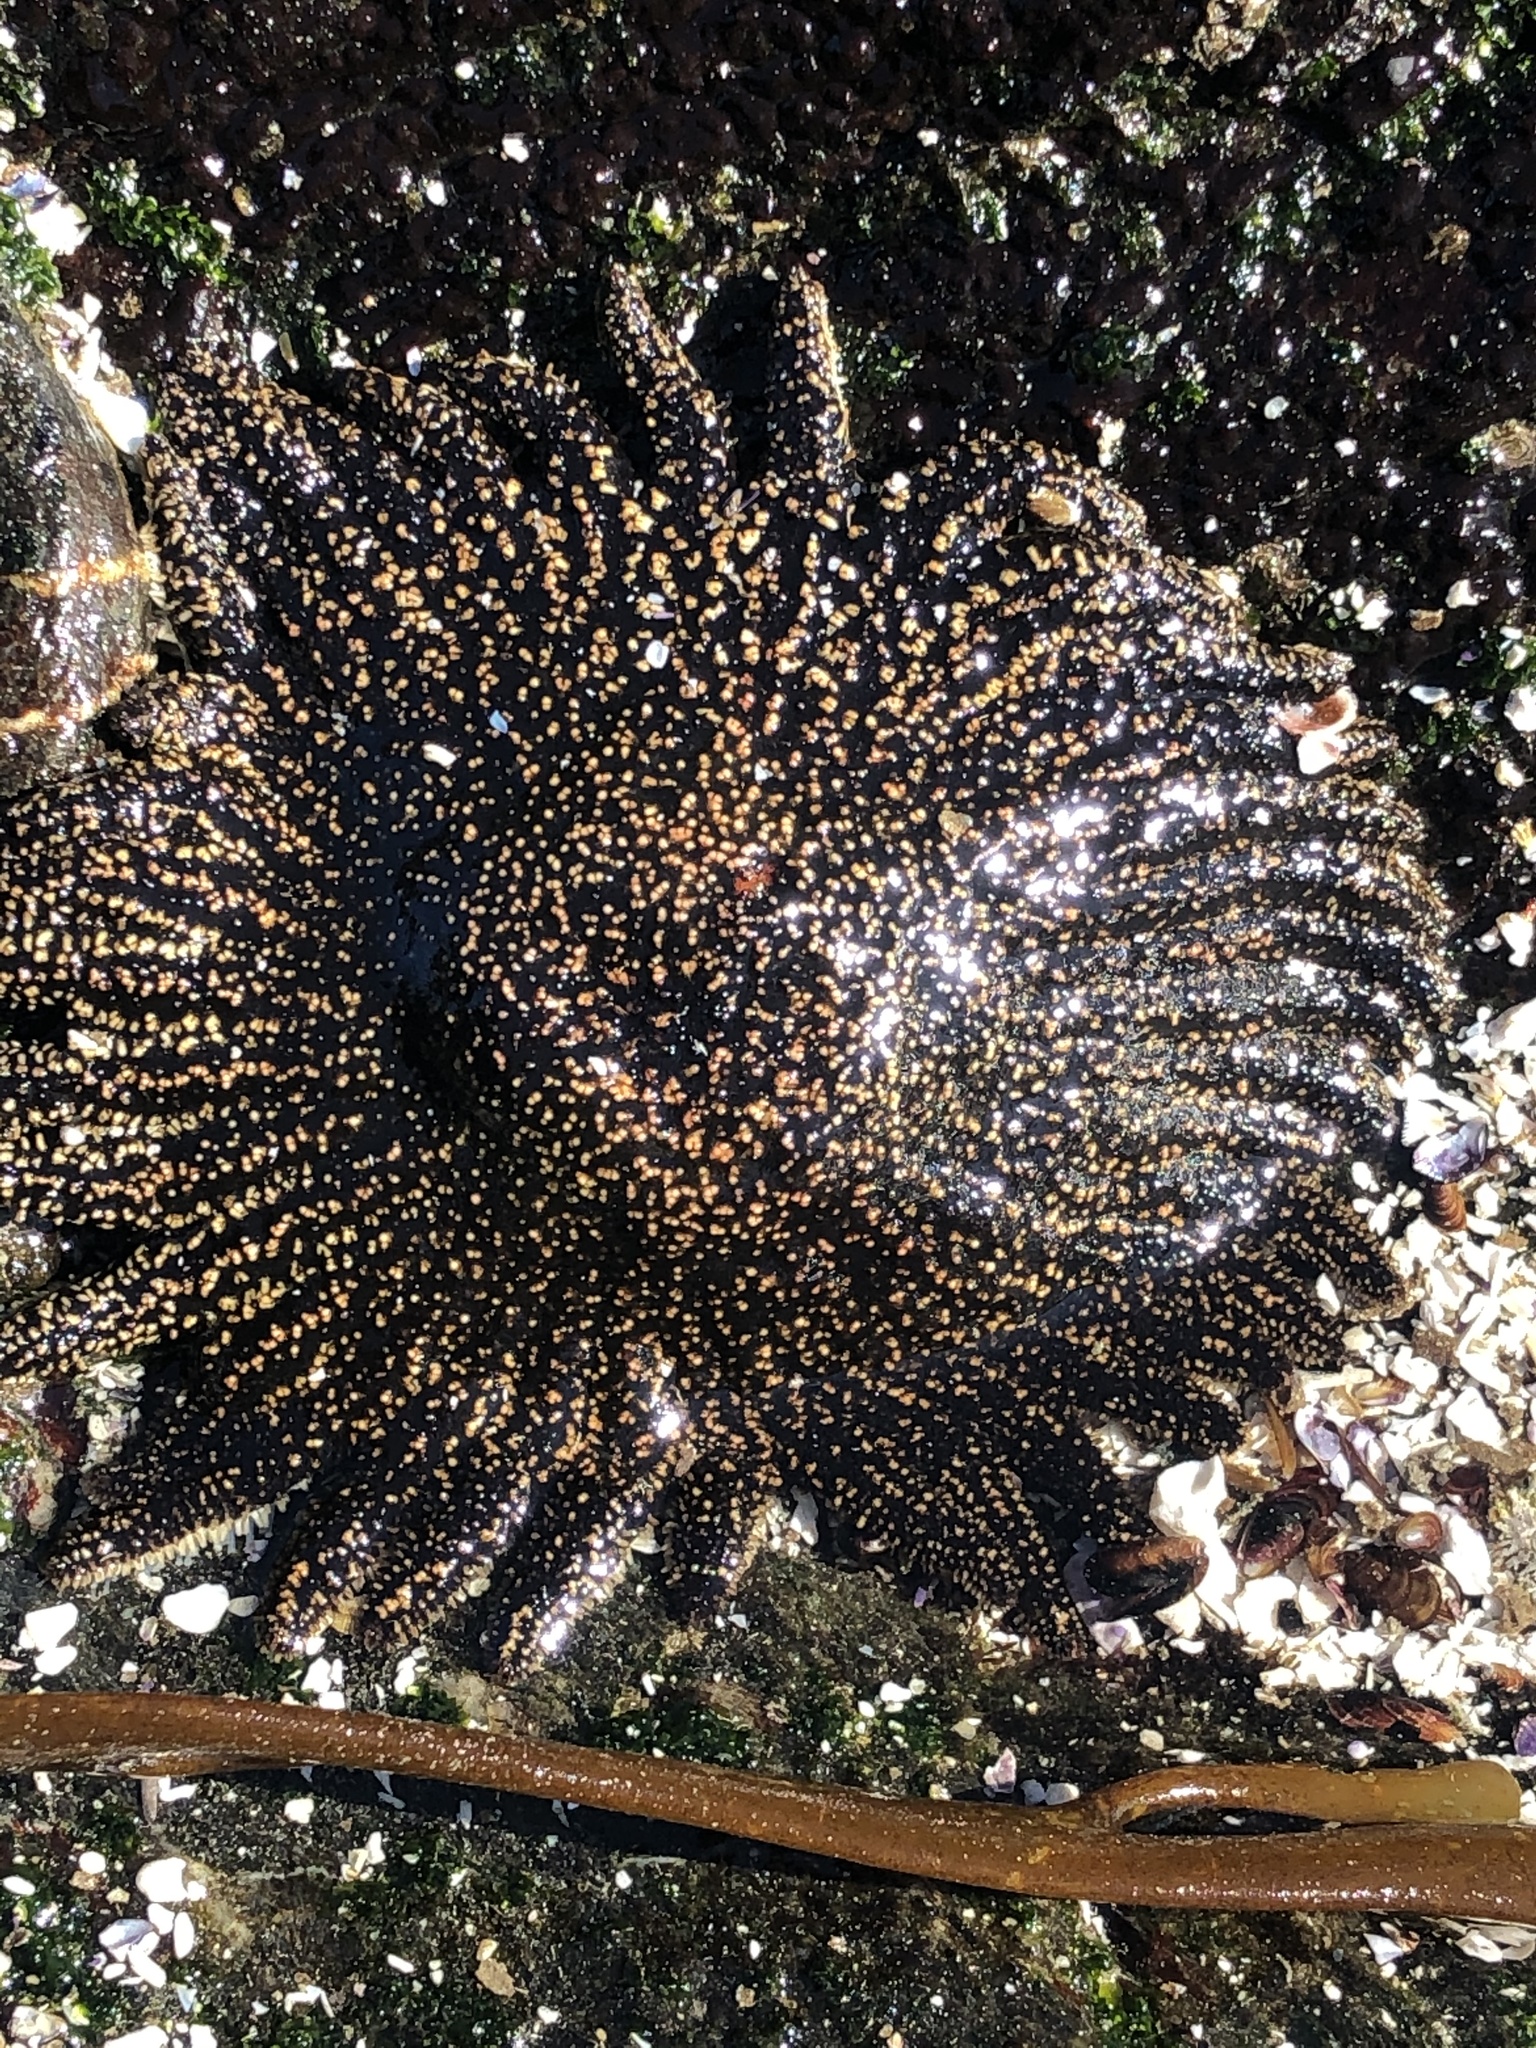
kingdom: Animalia
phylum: Echinodermata
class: Asteroidea
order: Forcipulatida
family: Heliasteridae
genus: Heliaster
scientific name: Heliaster helianthus
